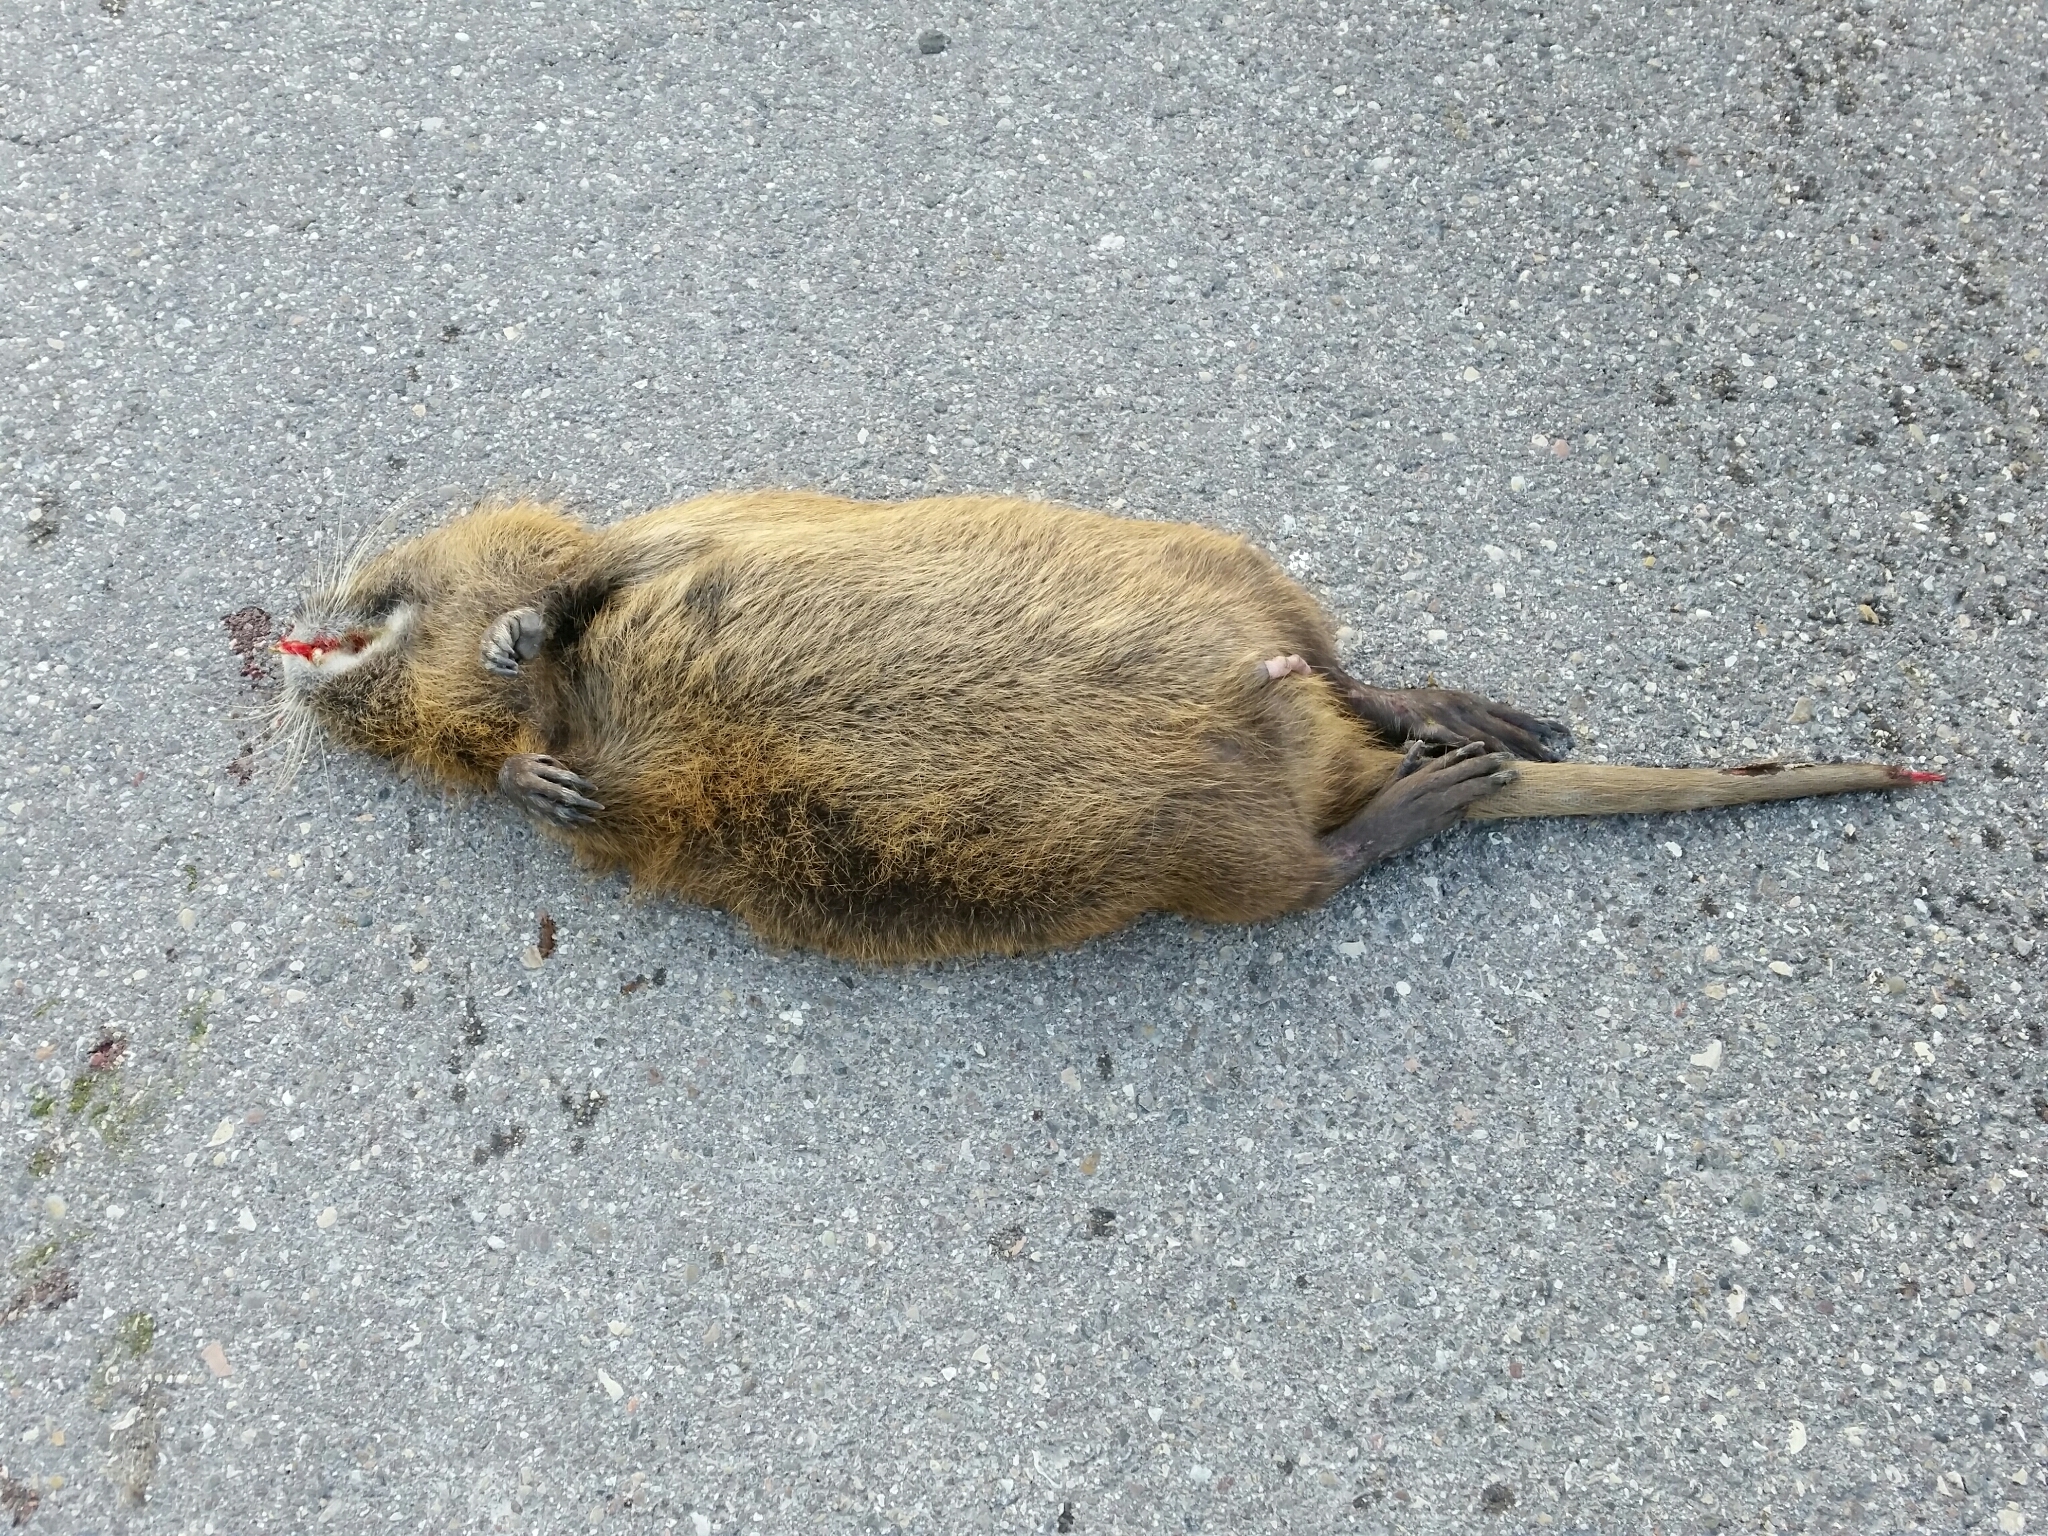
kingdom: Animalia
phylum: Chordata
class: Mammalia
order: Rodentia
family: Myocastoridae
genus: Myocastor
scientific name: Myocastor coypus
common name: Coypu
